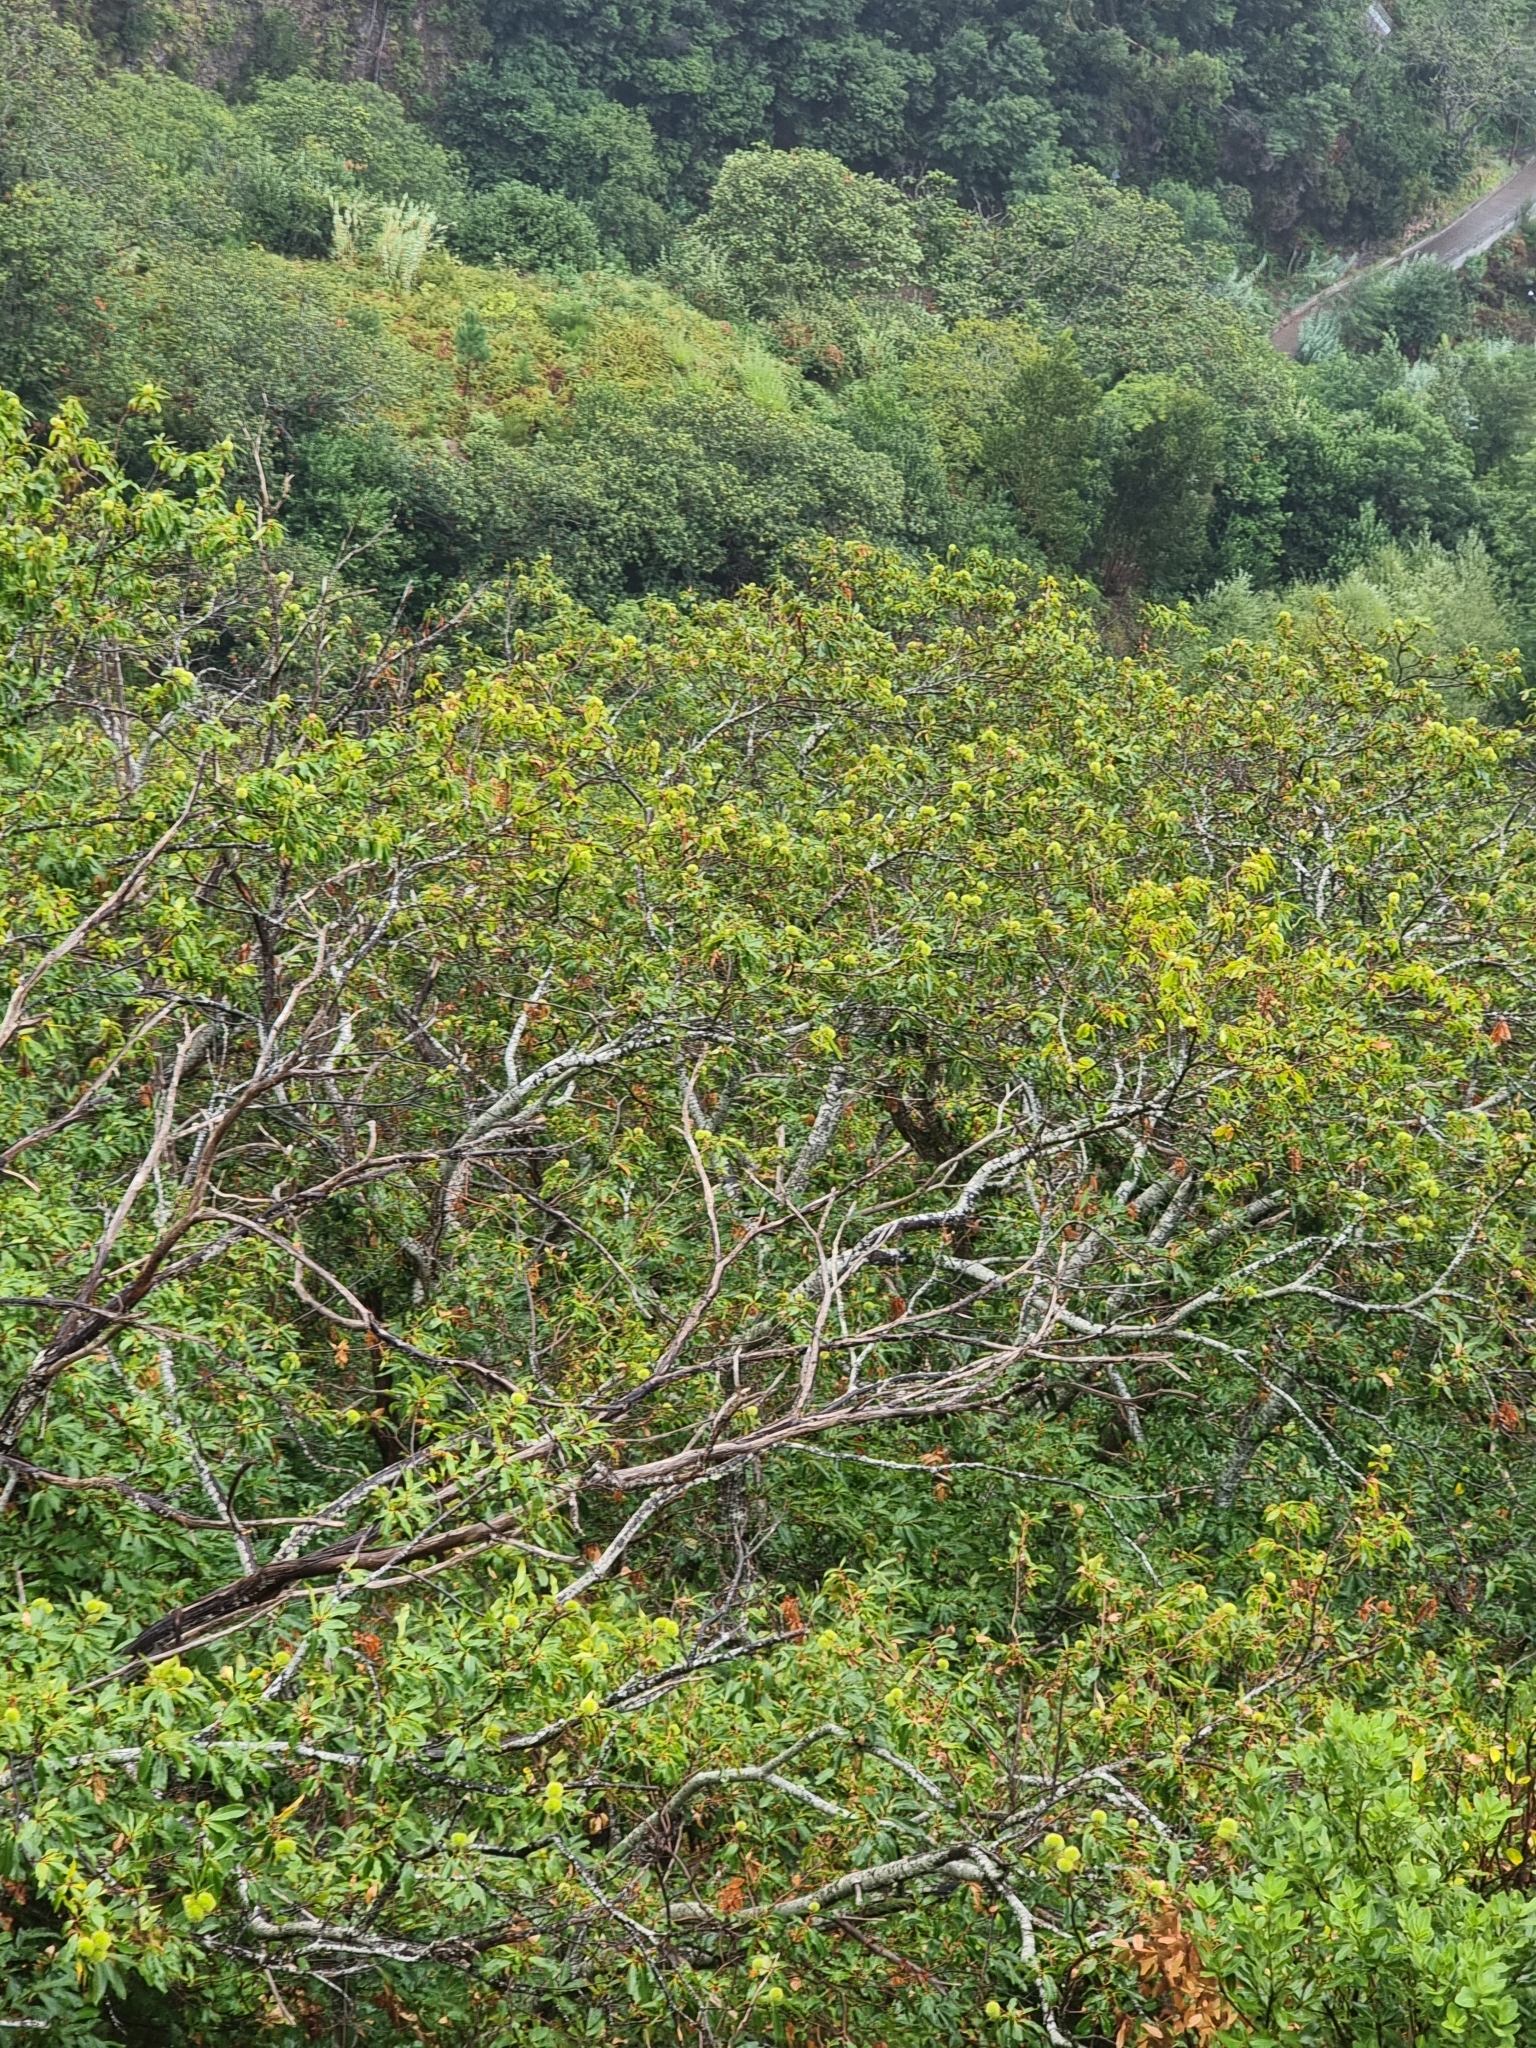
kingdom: Plantae
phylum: Tracheophyta
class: Magnoliopsida
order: Fagales
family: Fagaceae
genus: Castanea
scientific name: Castanea sativa
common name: Sweet chestnut
